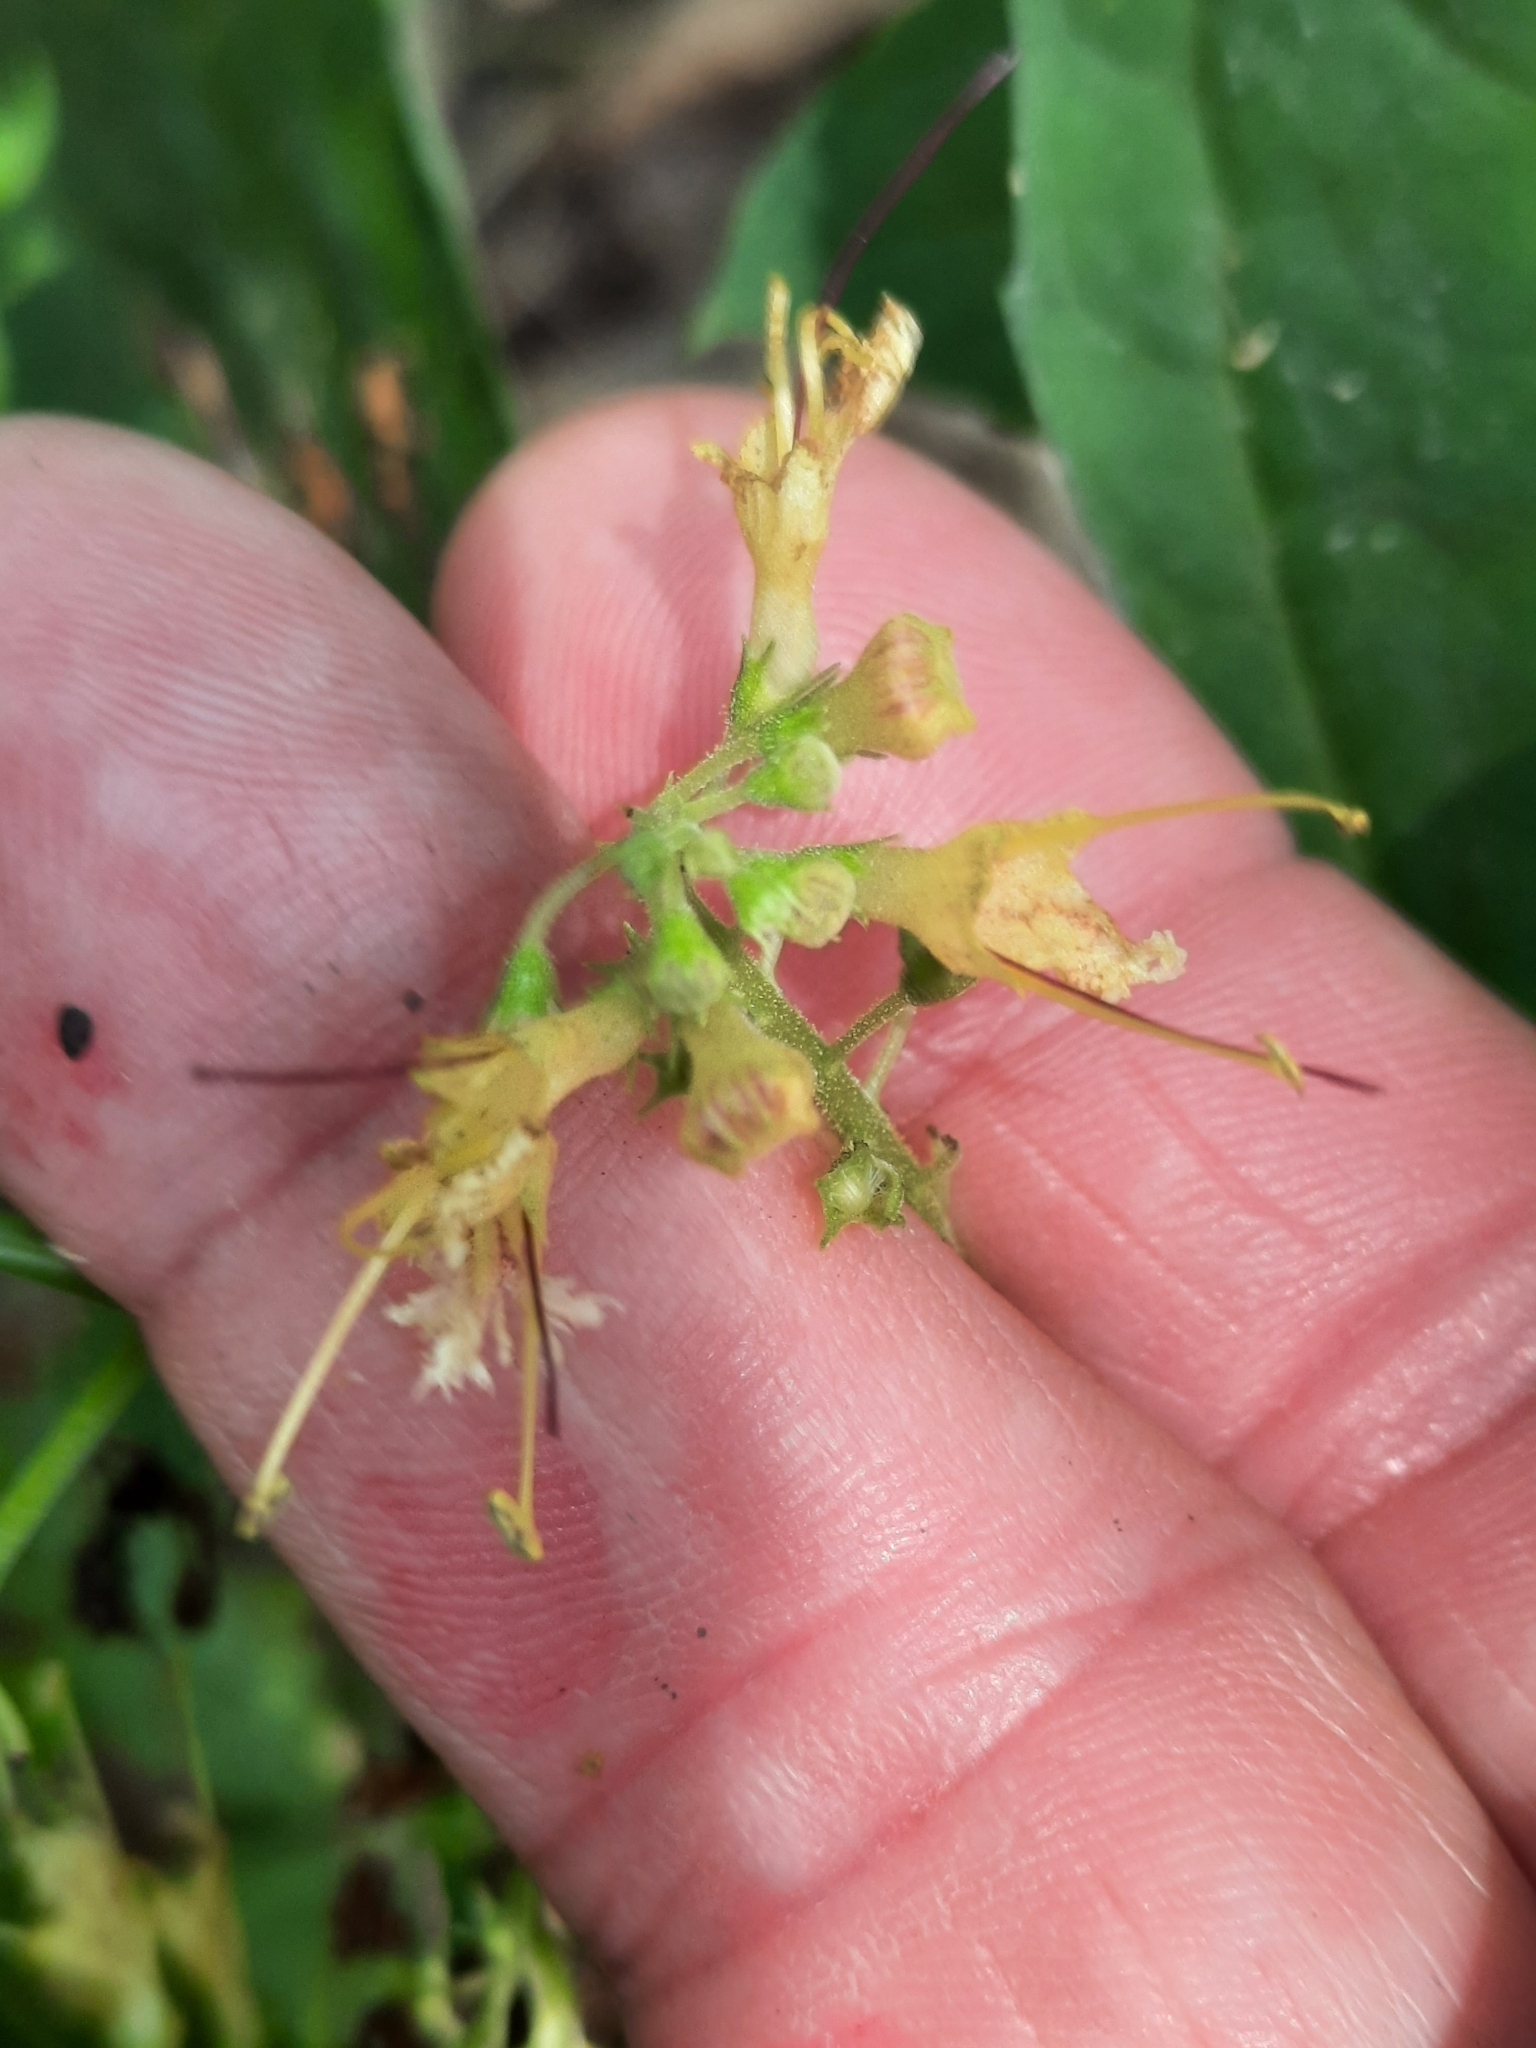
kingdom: Plantae
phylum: Tracheophyta
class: Magnoliopsida
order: Lamiales
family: Lamiaceae
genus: Collinsonia
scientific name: Collinsonia canadensis
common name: Northern horsebalm
